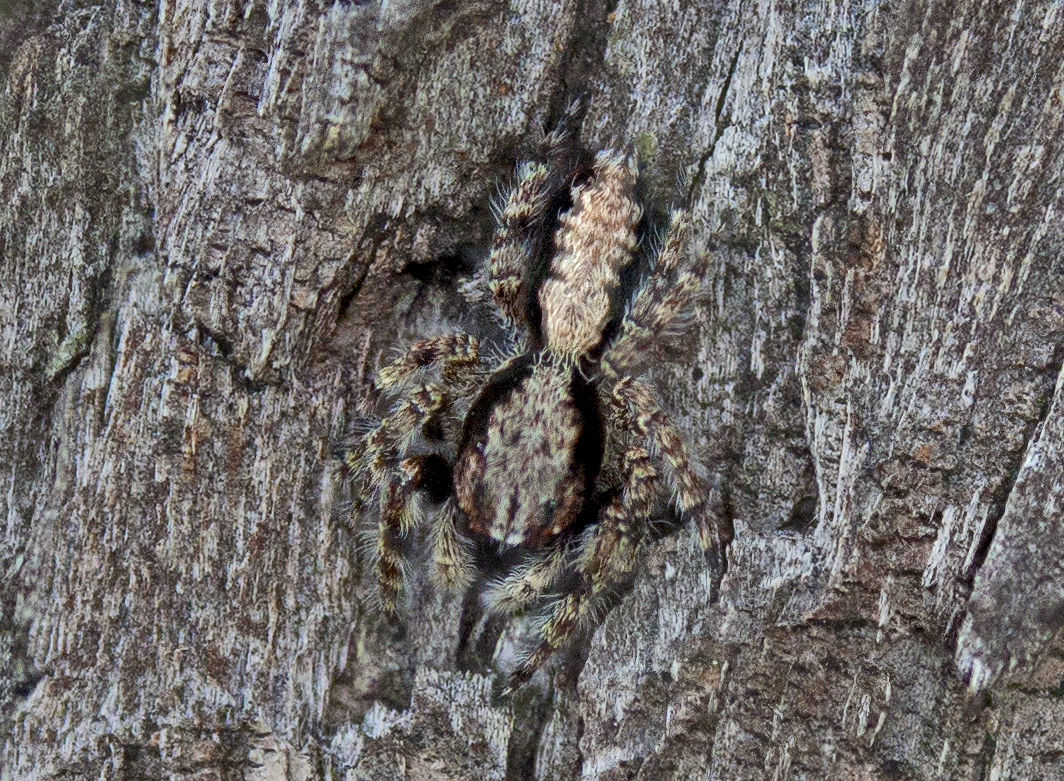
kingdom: Animalia
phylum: Arthropoda
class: Arachnida
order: Araneae
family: Salticidae
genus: Clynotis
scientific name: Clynotis severus
